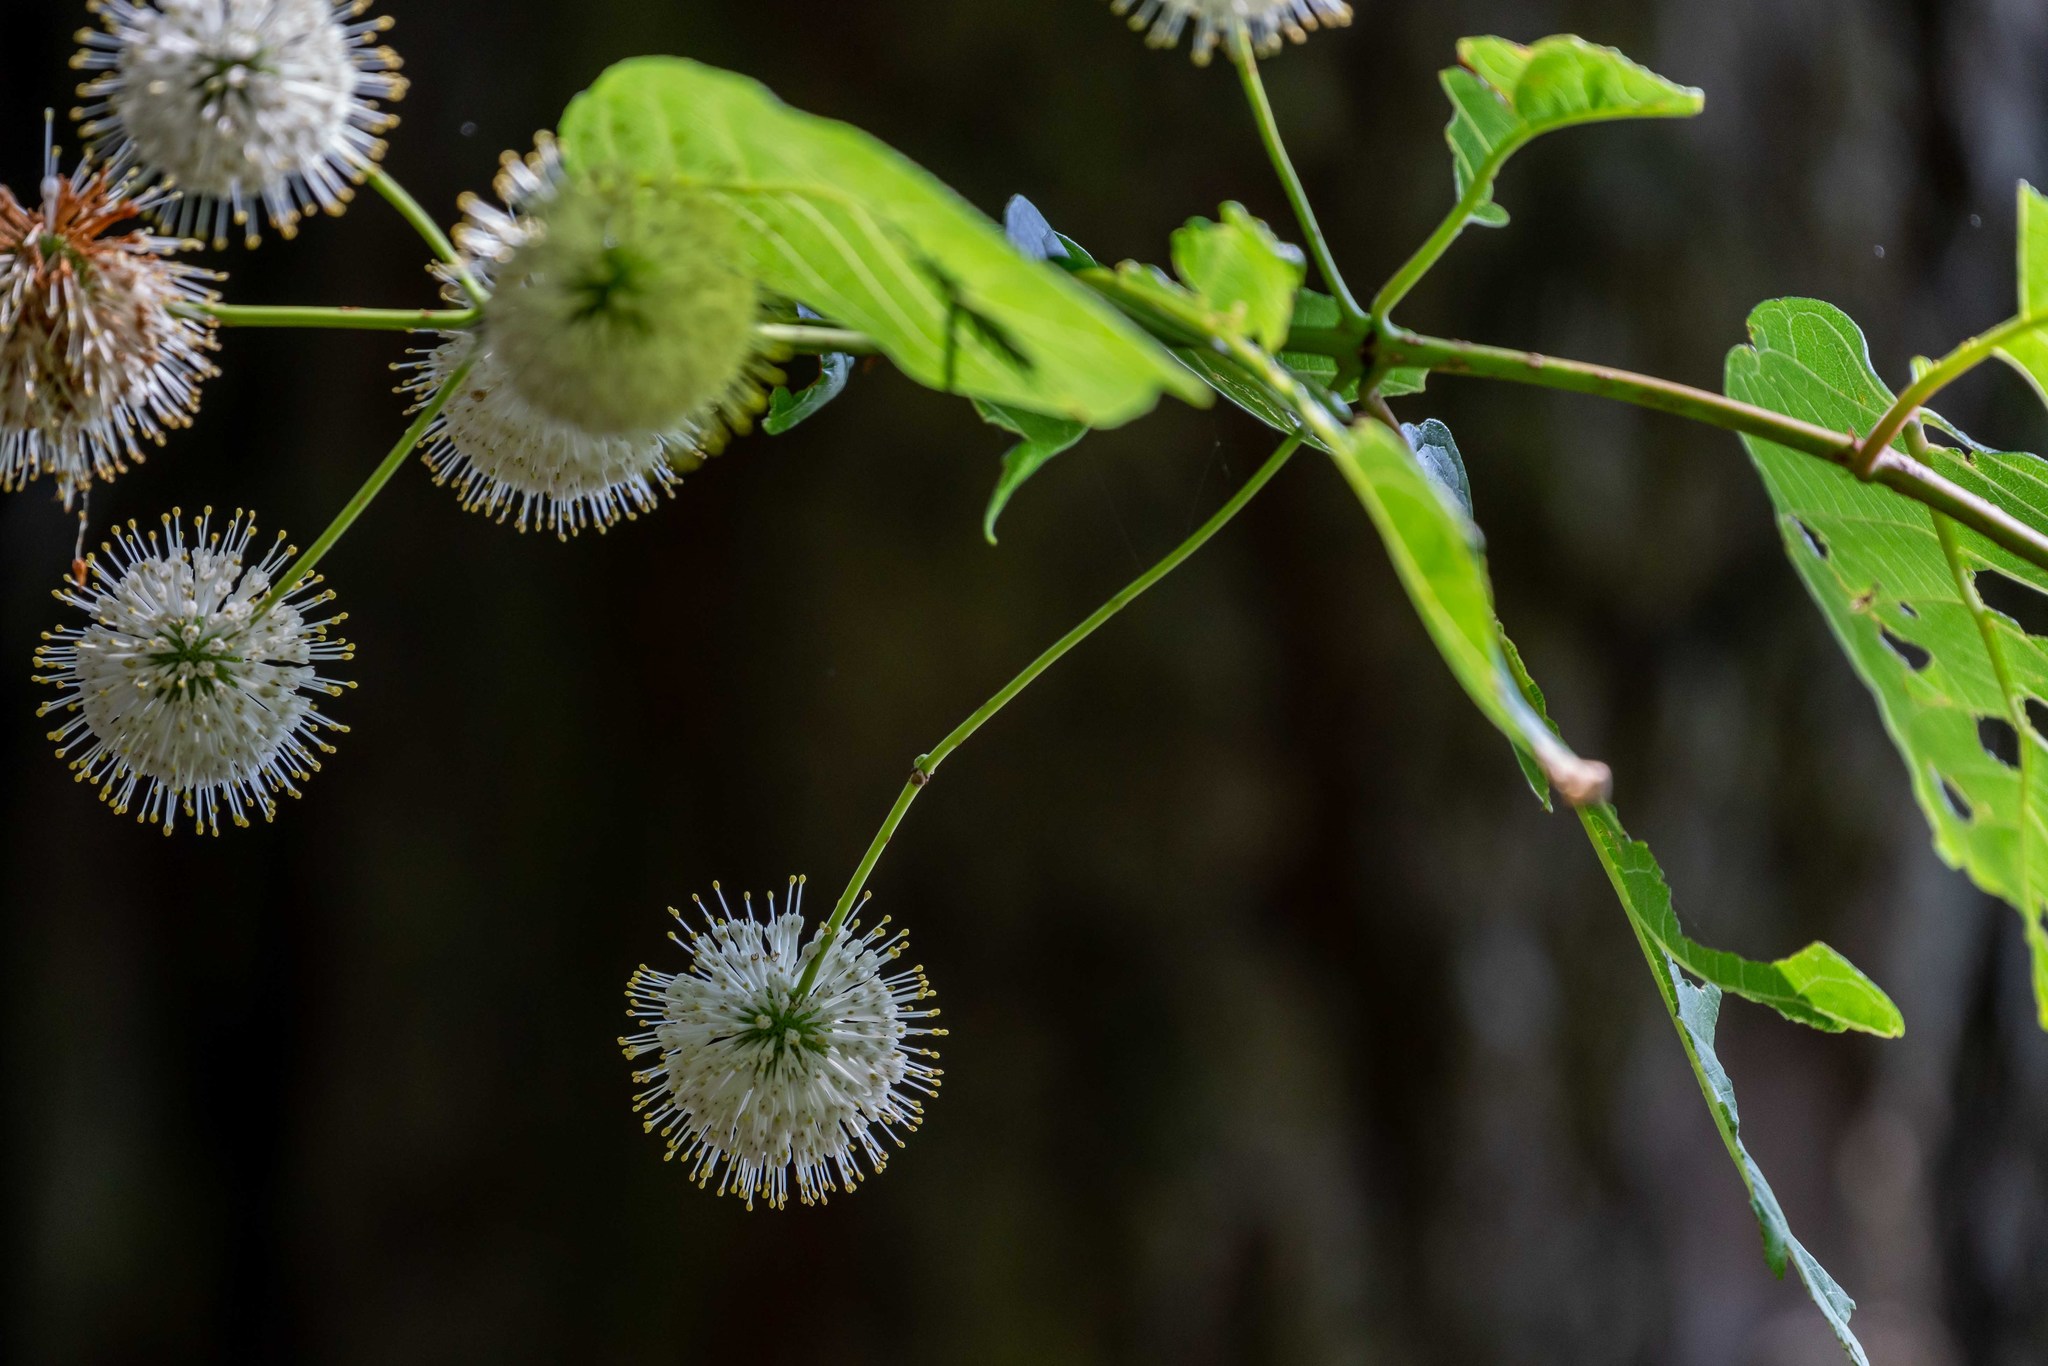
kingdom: Plantae
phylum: Tracheophyta
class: Magnoliopsida
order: Gentianales
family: Rubiaceae
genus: Cephalanthus
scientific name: Cephalanthus occidentalis
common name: Button-willow
